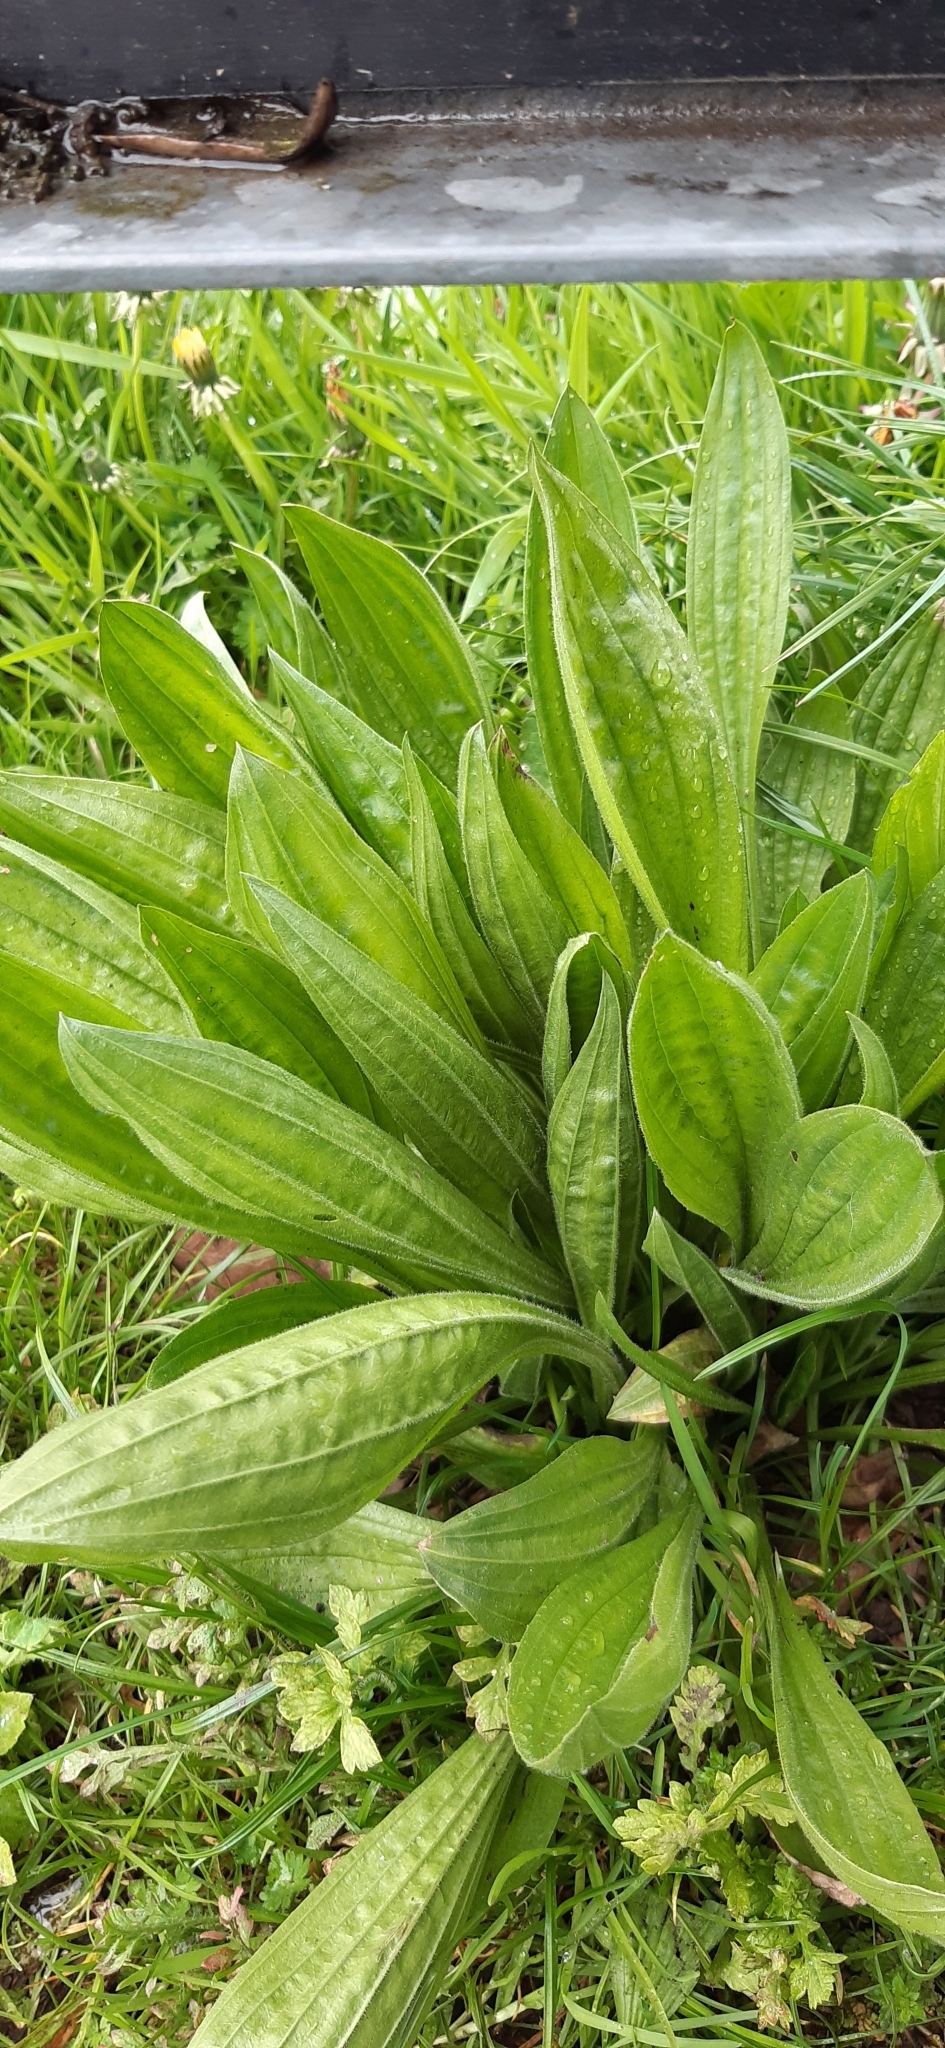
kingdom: Plantae
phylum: Tracheophyta
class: Magnoliopsida
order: Lamiales
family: Plantaginaceae
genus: Plantago
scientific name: Plantago lanceolata
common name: Ribwort plantain
